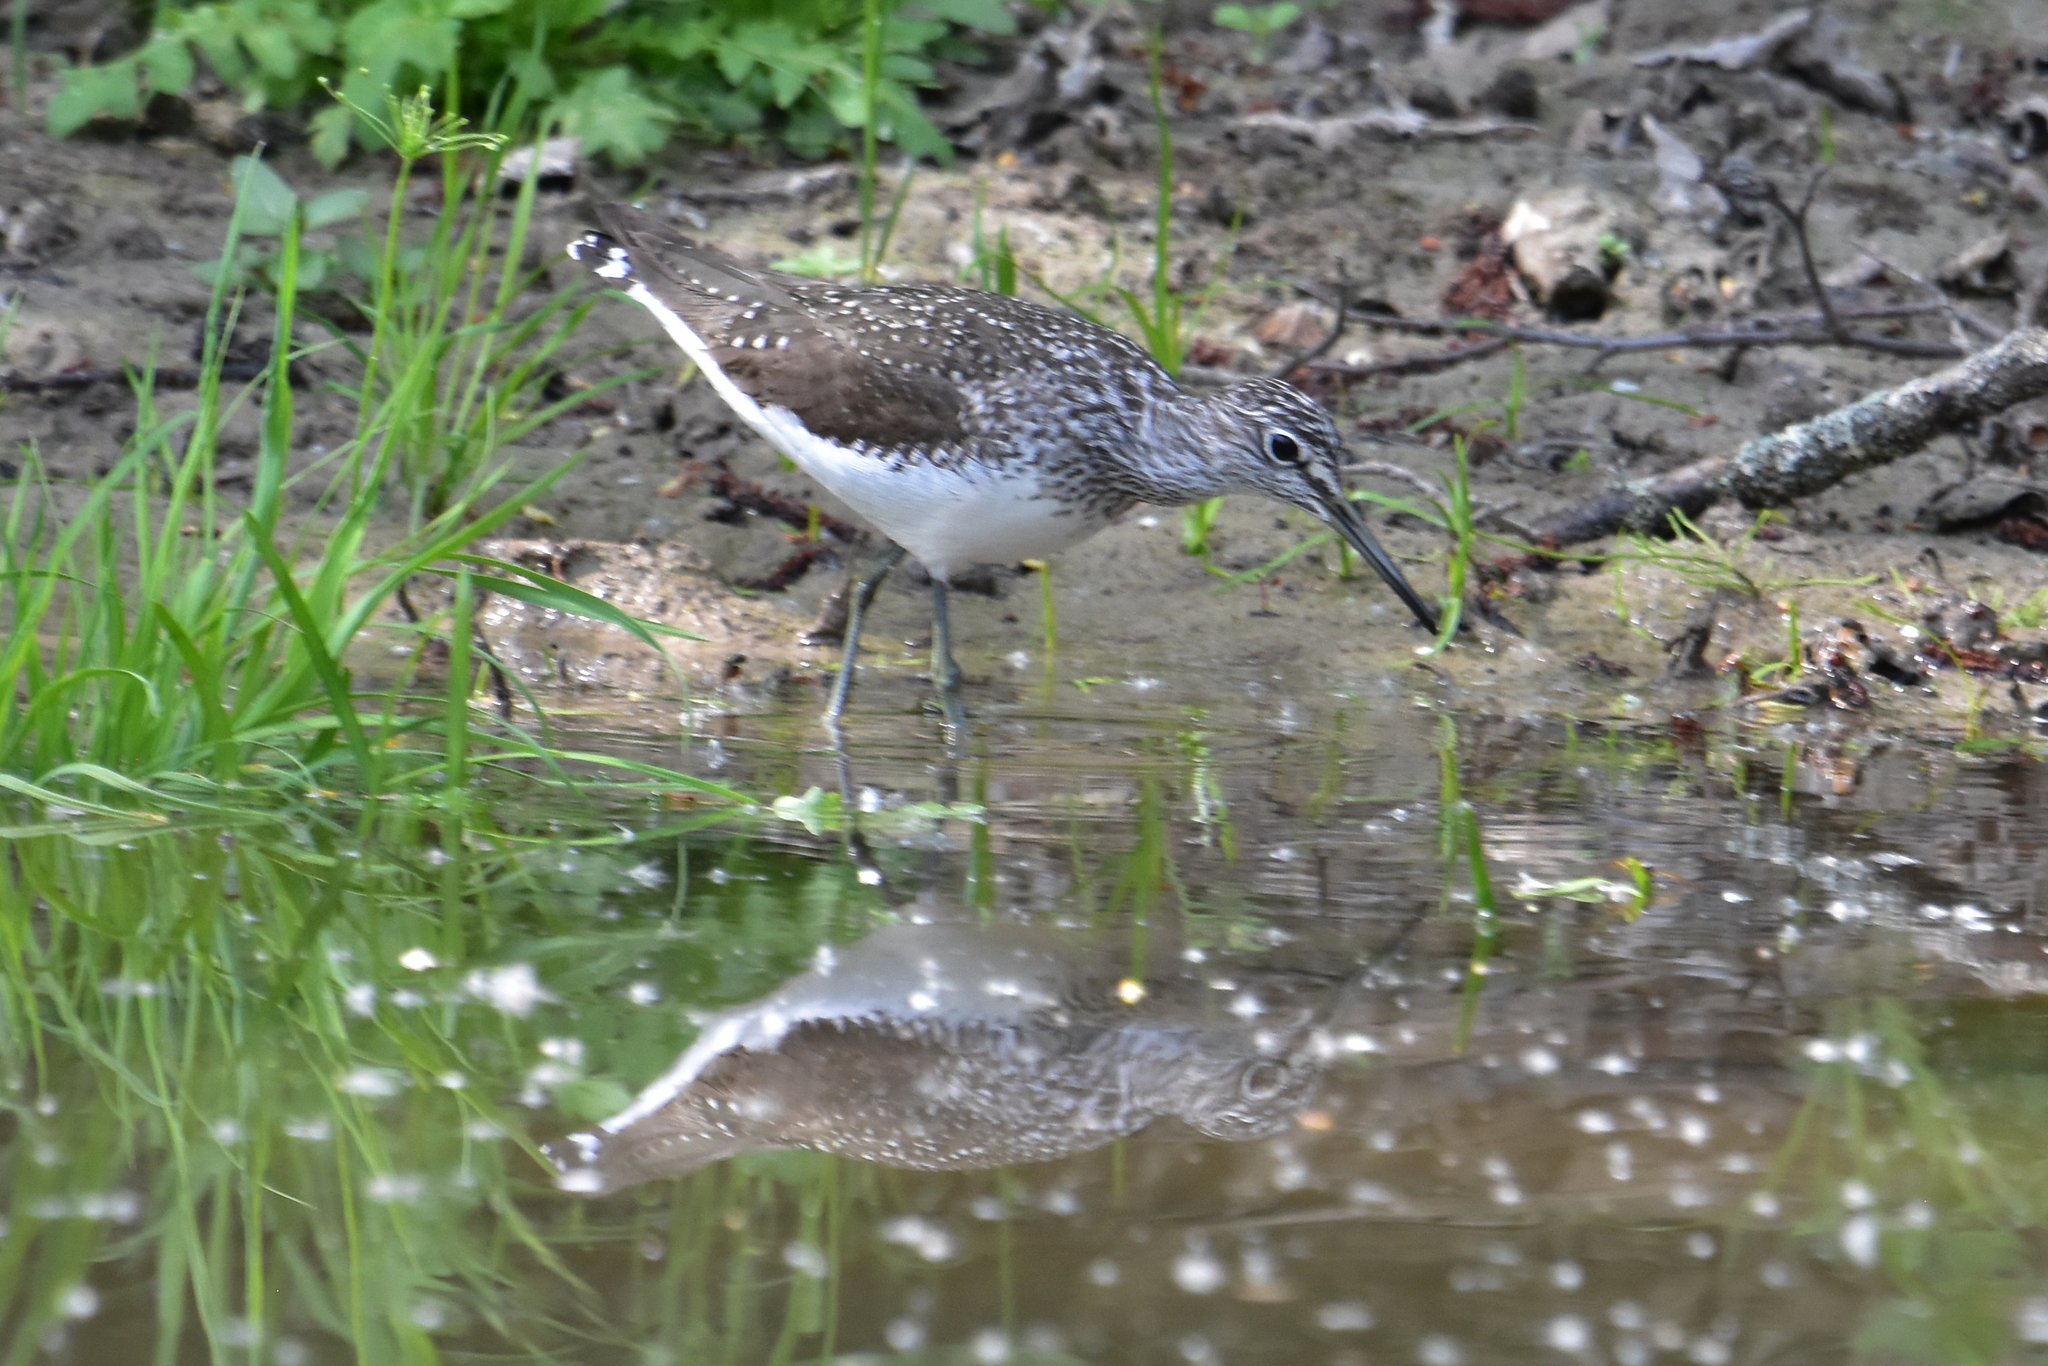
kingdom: Animalia
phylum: Chordata
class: Aves
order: Charadriiformes
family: Scolopacidae
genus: Tringa
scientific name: Tringa ochropus
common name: Green sandpiper
